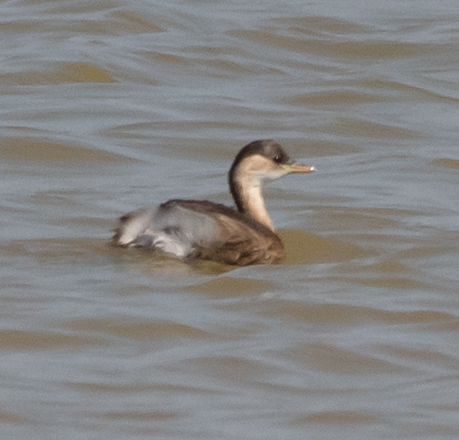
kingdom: Animalia
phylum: Chordata
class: Aves
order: Podicipediformes
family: Podicipedidae
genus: Tachybaptus
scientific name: Tachybaptus ruficollis
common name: Little grebe
